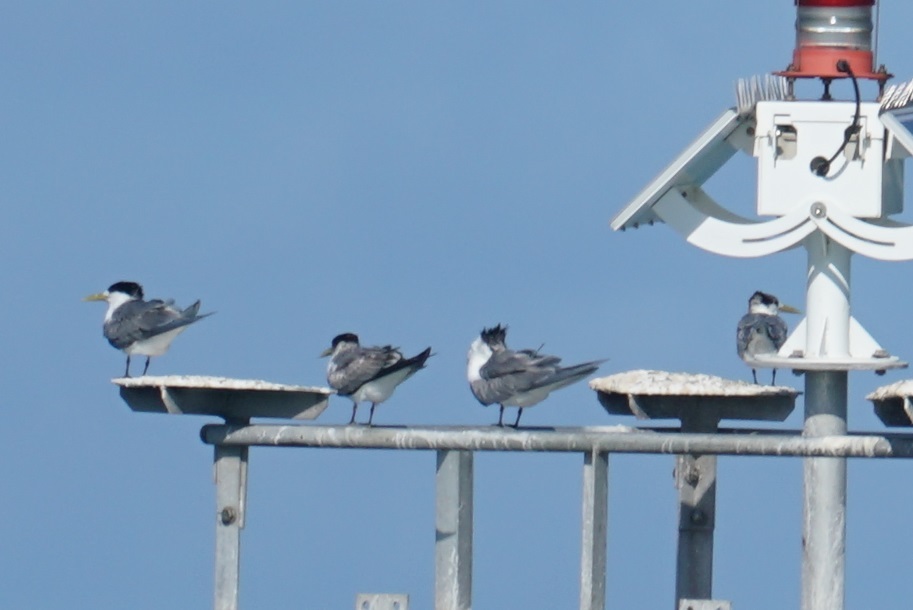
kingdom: Animalia
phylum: Chordata
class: Aves
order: Charadriiformes
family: Laridae
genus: Thalasseus
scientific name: Thalasseus bergii
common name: Greater crested tern
